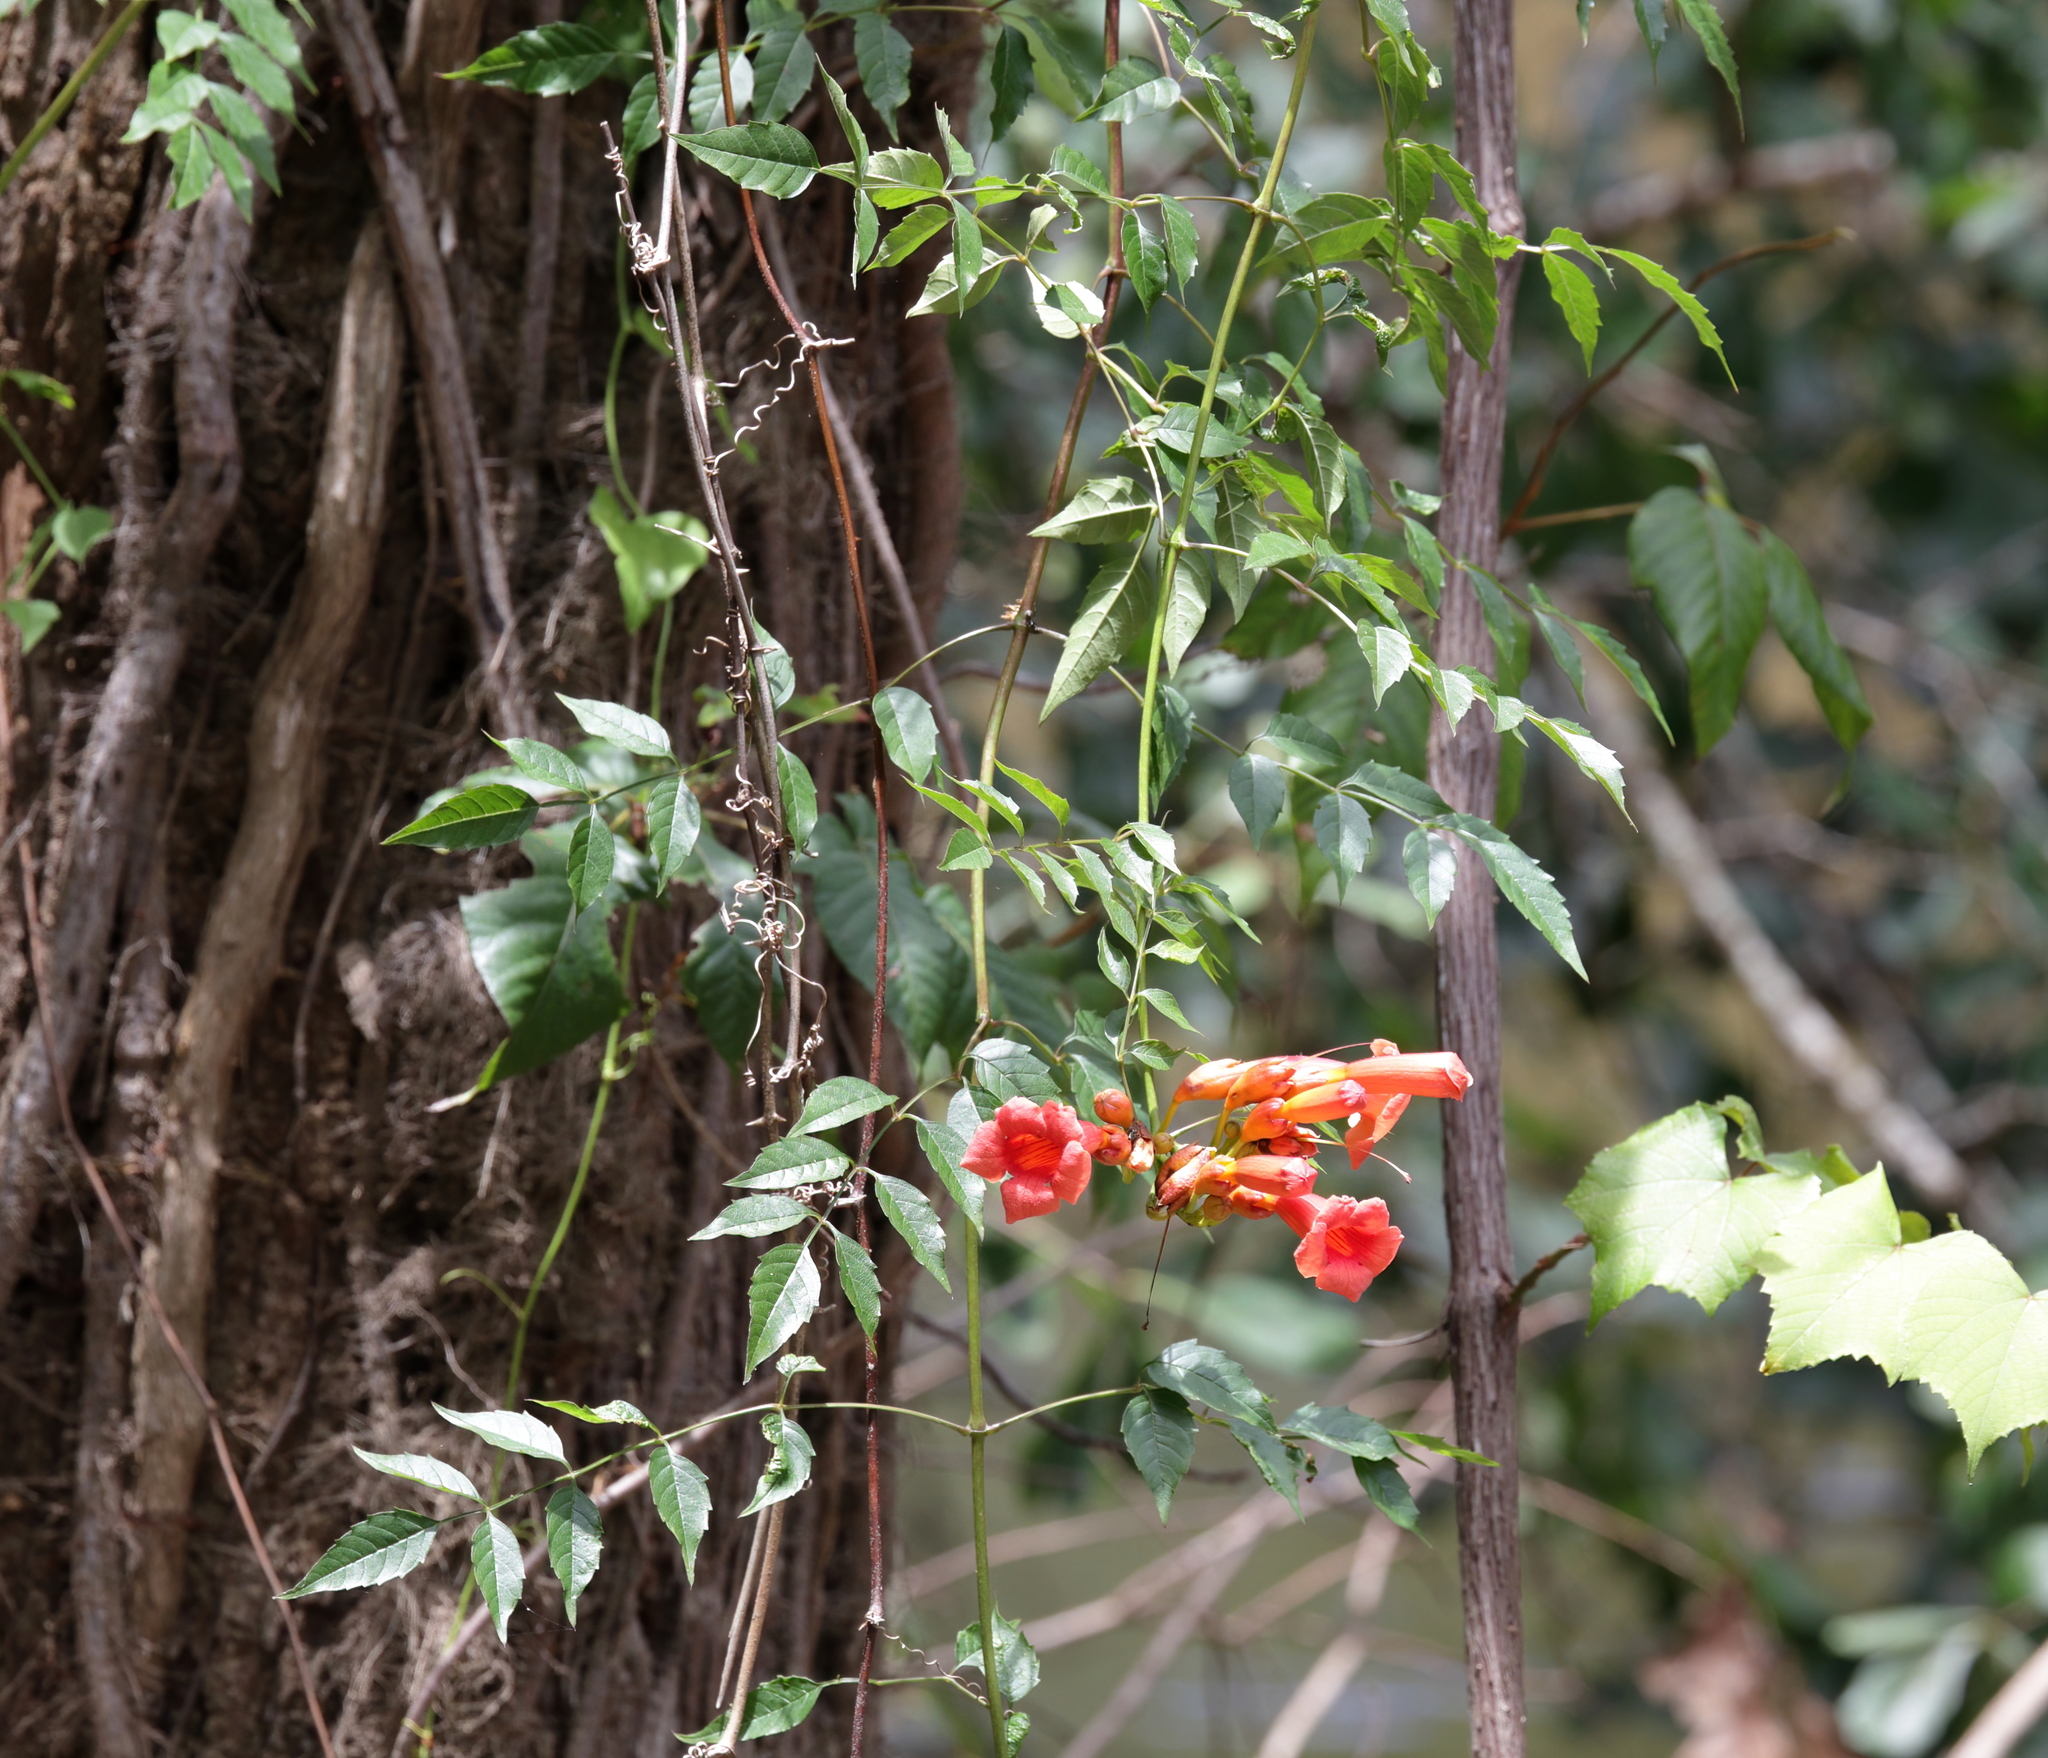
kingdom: Plantae
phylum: Tracheophyta
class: Magnoliopsida
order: Lamiales
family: Bignoniaceae
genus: Campsis
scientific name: Campsis radicans
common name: Trumpet-creeper
